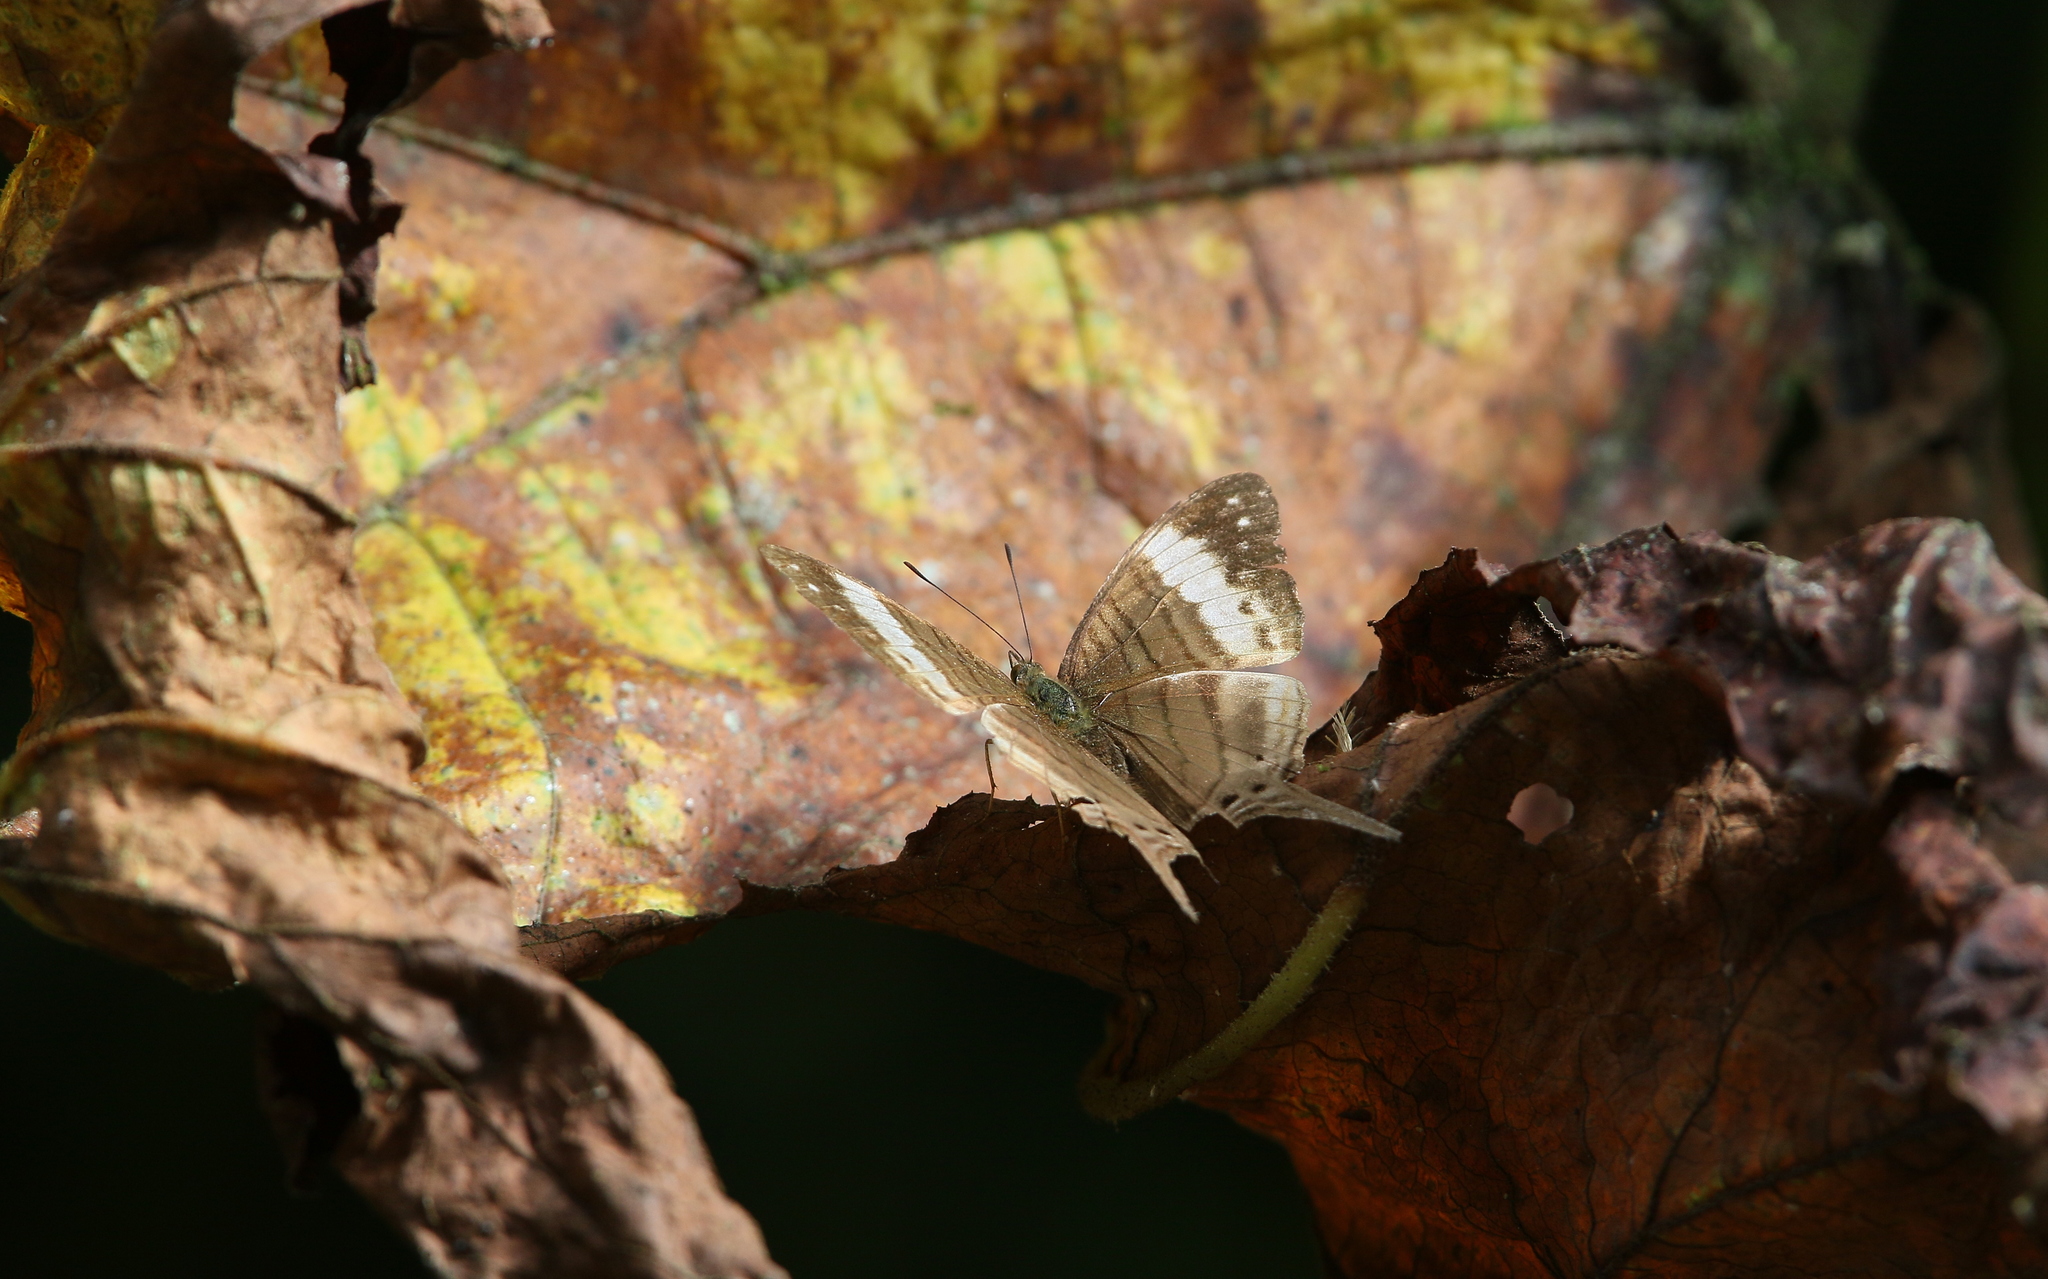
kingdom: Animalia
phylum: Arthropoda
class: Insecta
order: Lepidoptera
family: Nymphalidae
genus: Marpesia
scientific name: Marpesia marcella
